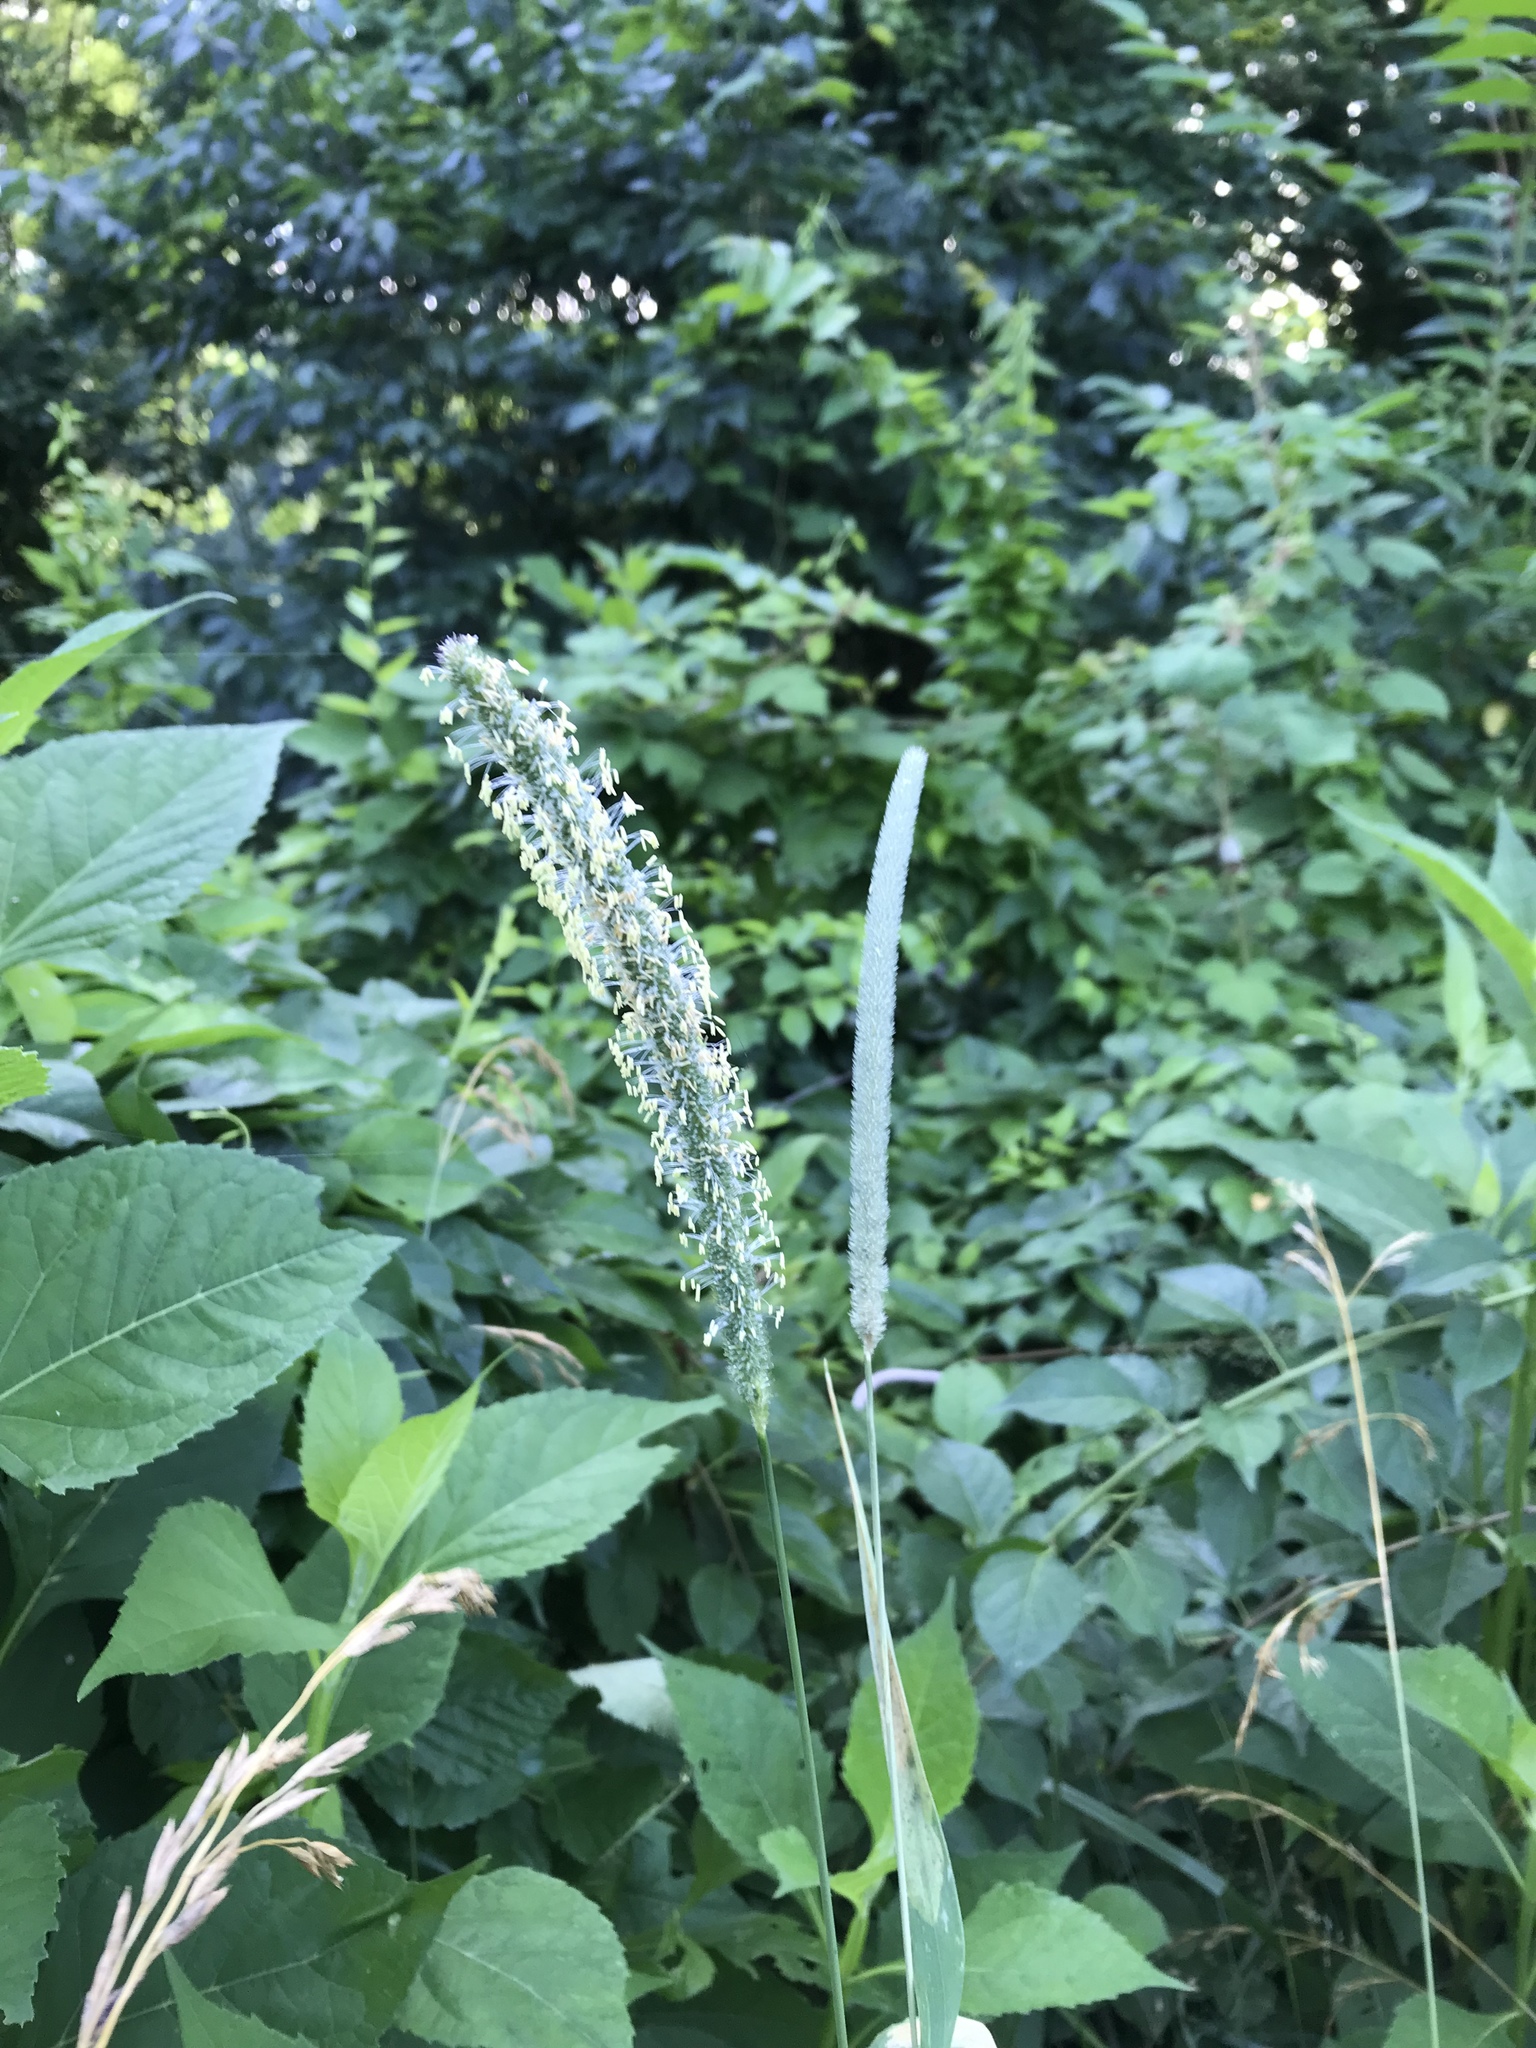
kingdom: Plantae
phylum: Tracheophyta
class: Liliopsida
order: Poales
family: Poaceae
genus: Phleum
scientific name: Phleum pratense
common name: Timothy grass
